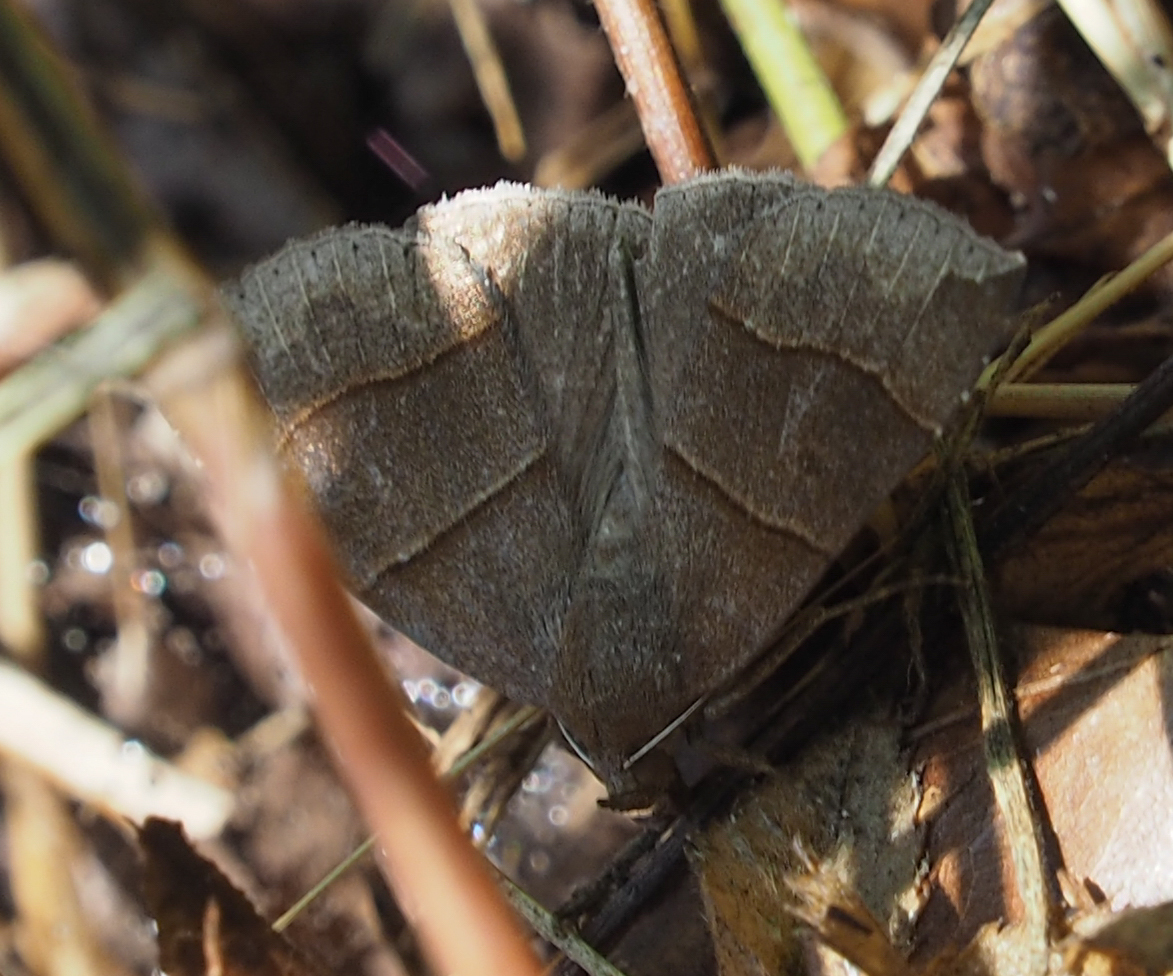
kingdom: Animalia
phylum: Arthropoda
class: Insecta
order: Lepidoptera
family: Erebidae
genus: Parallelia
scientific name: Parallelia bistriaris
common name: Maple looper moth
